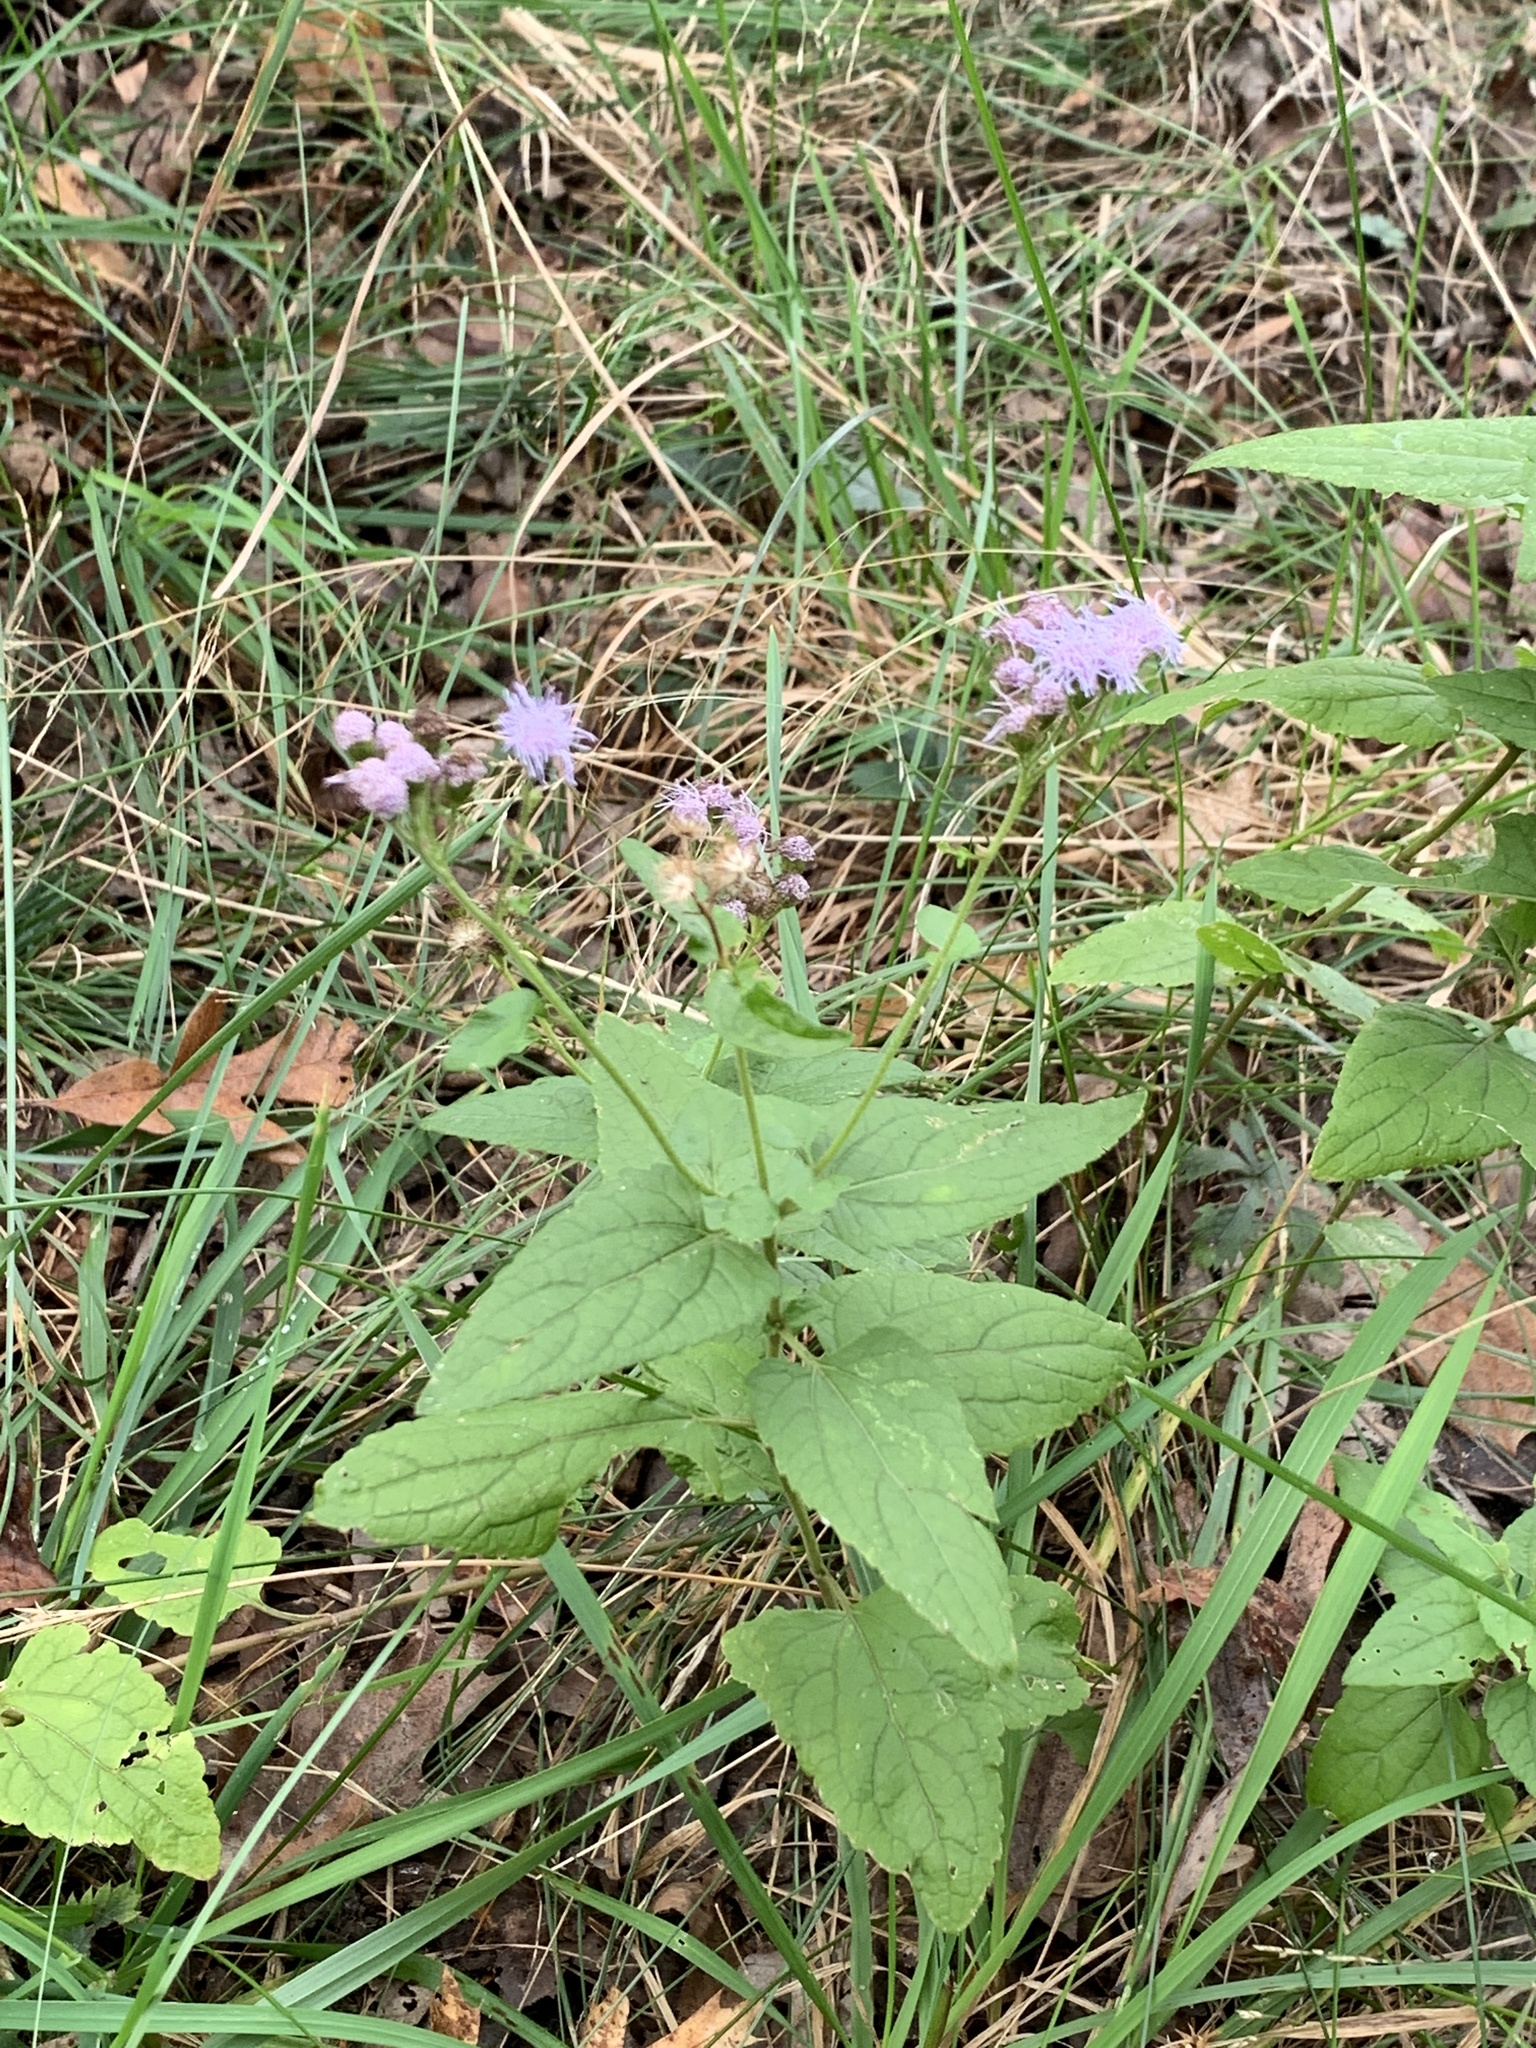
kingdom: Plantae
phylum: Tracheophyta
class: Magnoliopsida
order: Asterales
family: Asteraceae
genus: Conoclinium
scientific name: Conoclinium coelestinum
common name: Blue mistflower
